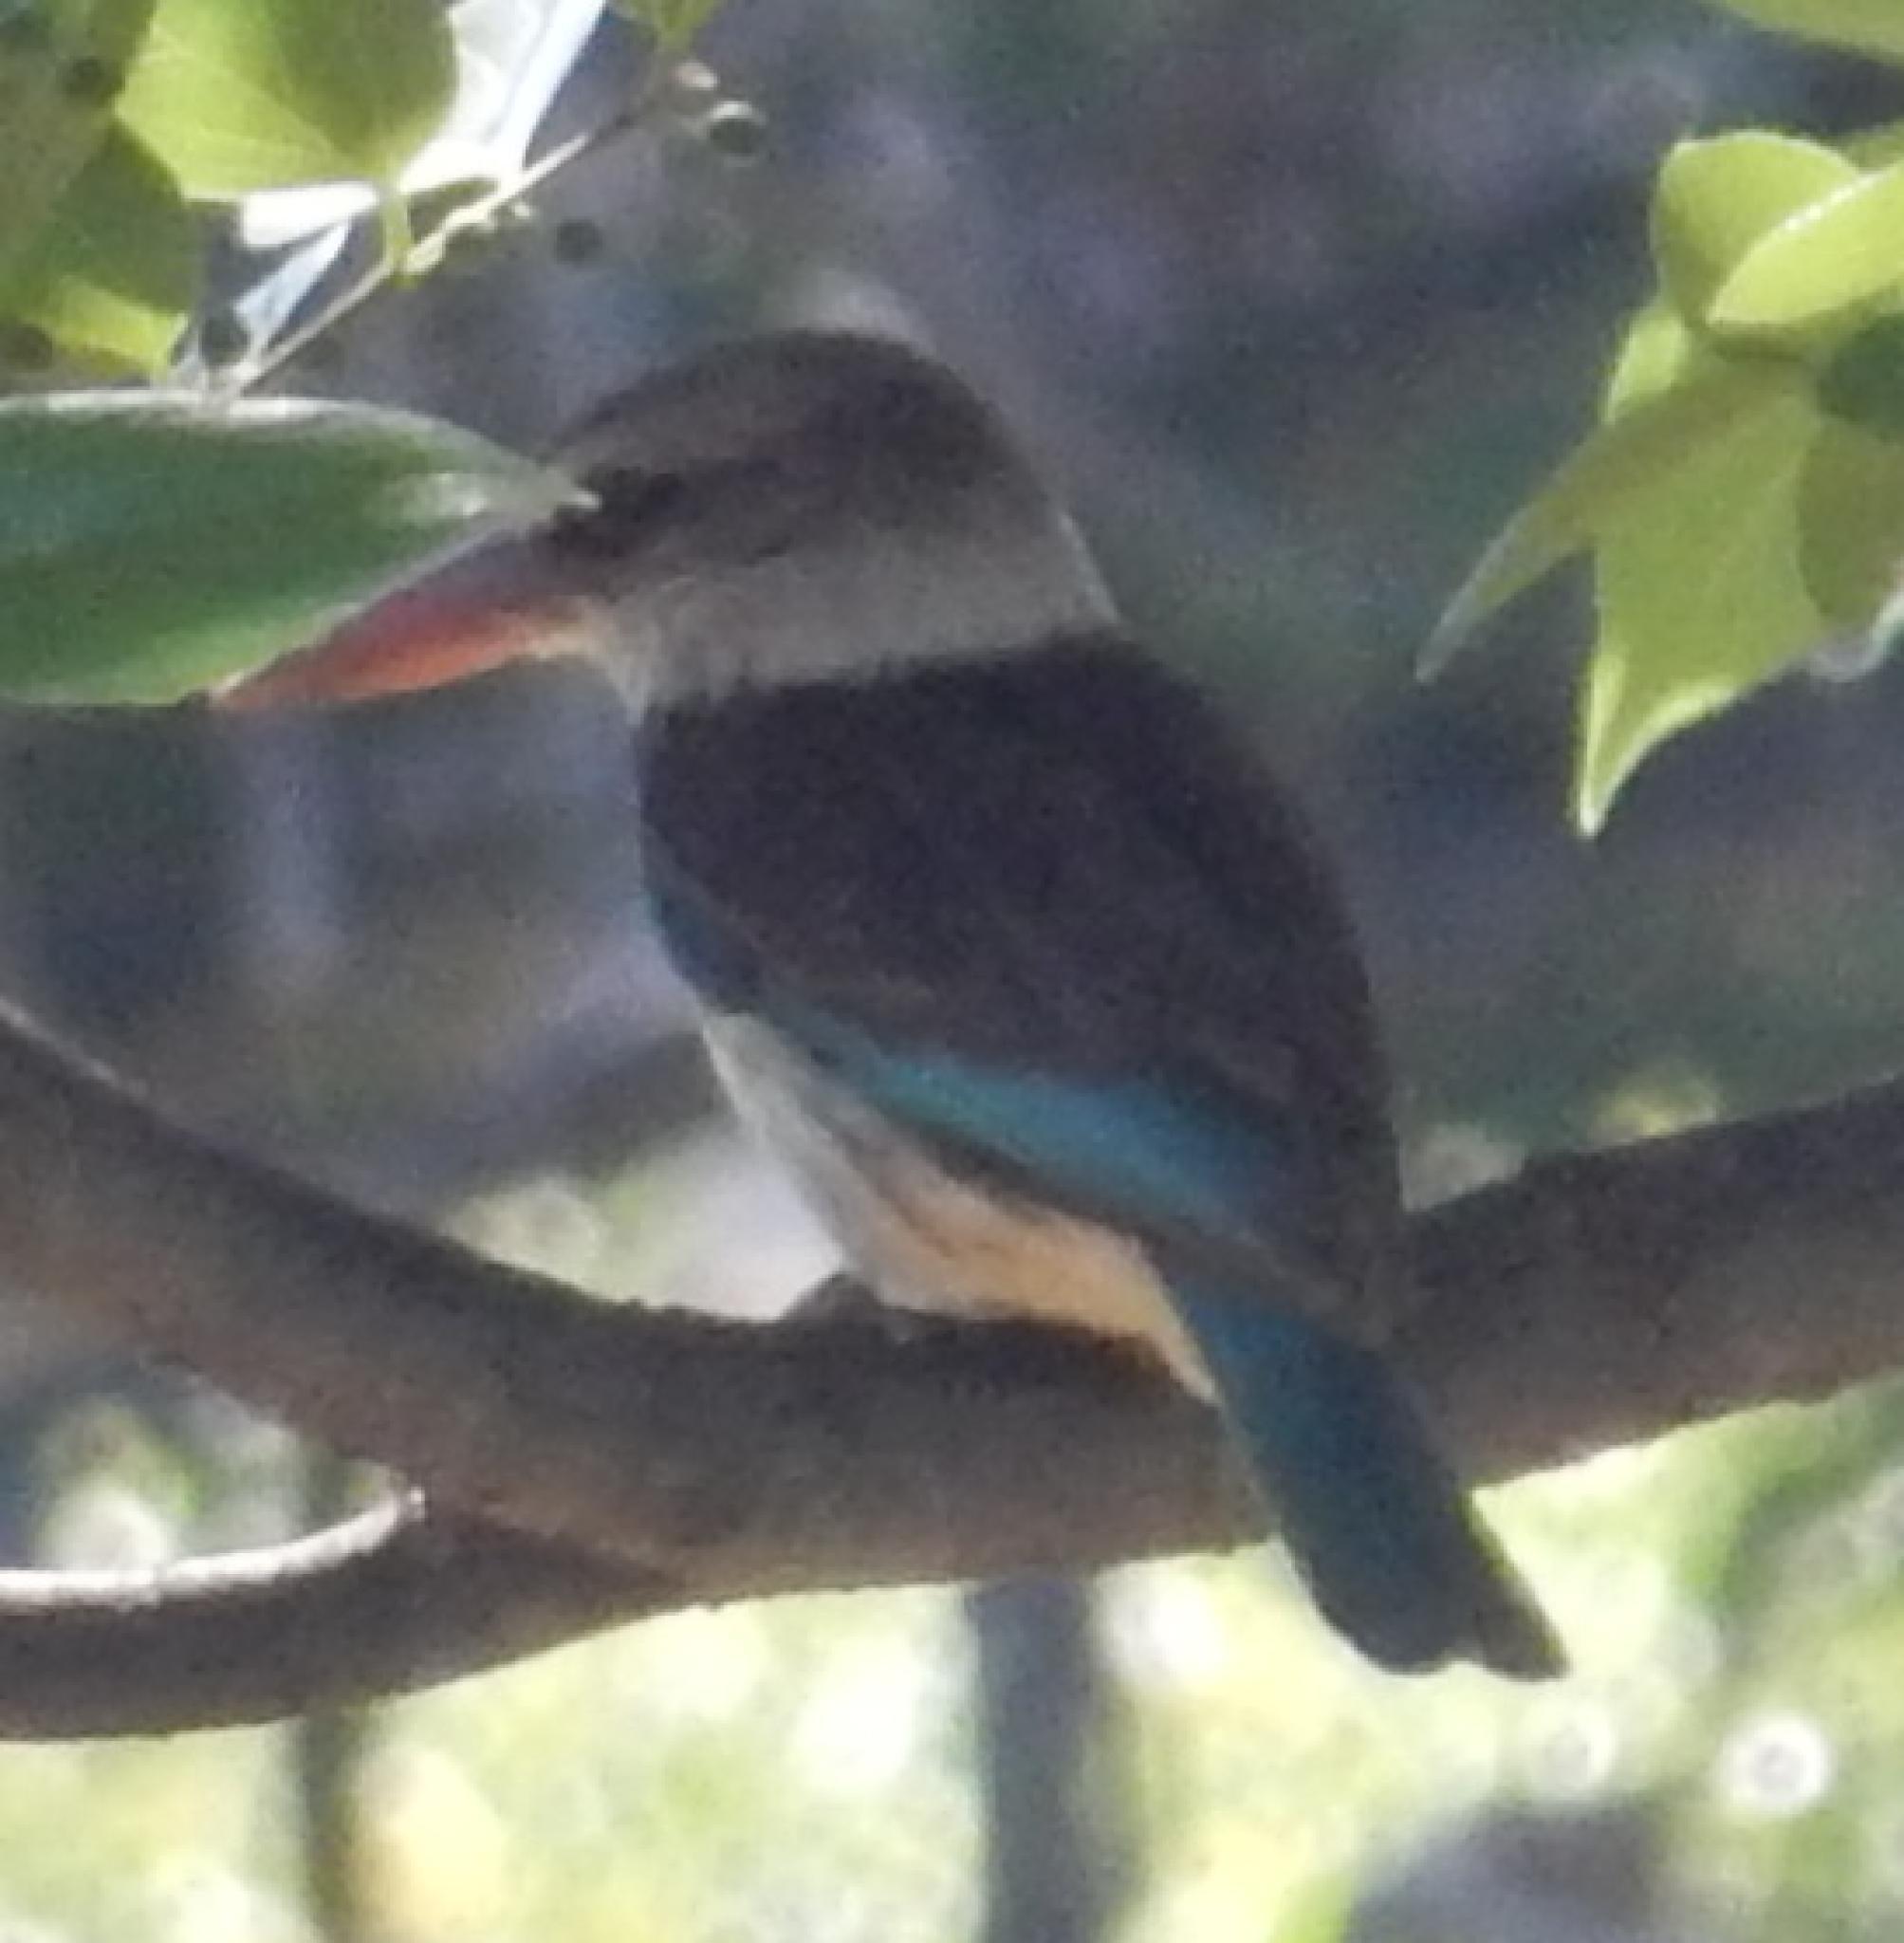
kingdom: Animalia
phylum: Chordata
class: Aves
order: Coraciiformes
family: Alcedinidae
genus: Halcyon
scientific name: Halcyon albiventris
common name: Brown-hooded kingfisher
